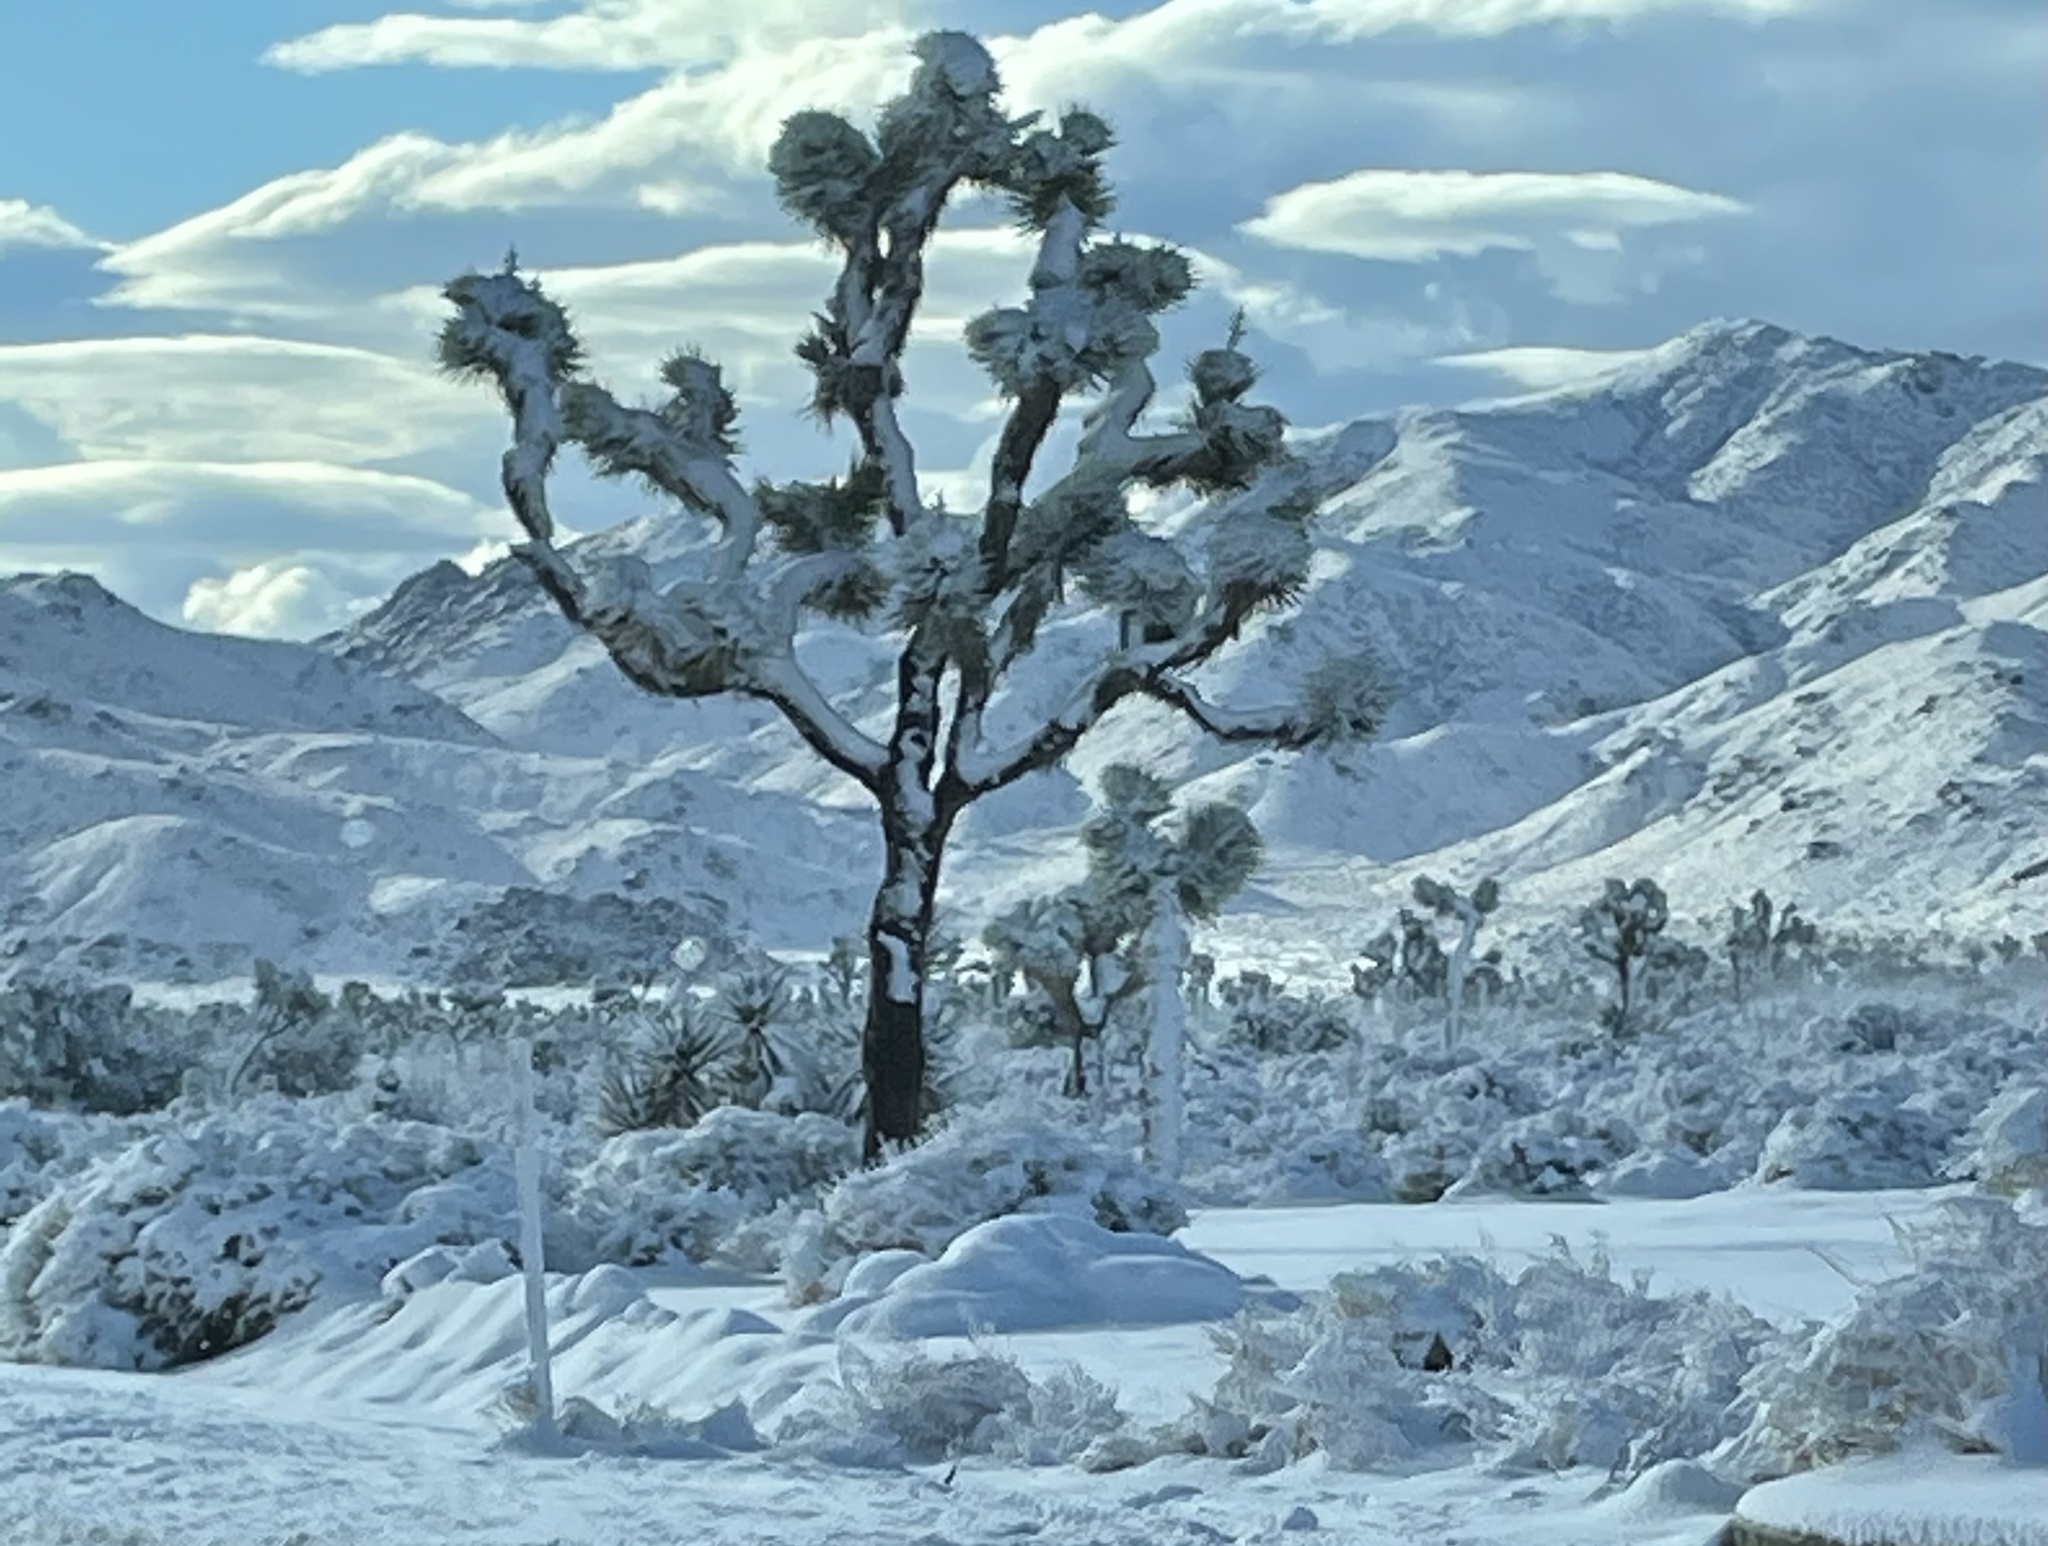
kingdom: Plantae
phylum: Tracheophyta
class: Liliopsida
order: Asparagales
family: Asparagaceae
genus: Yucca
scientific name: Yucca brevifolia
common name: Joshua tree
